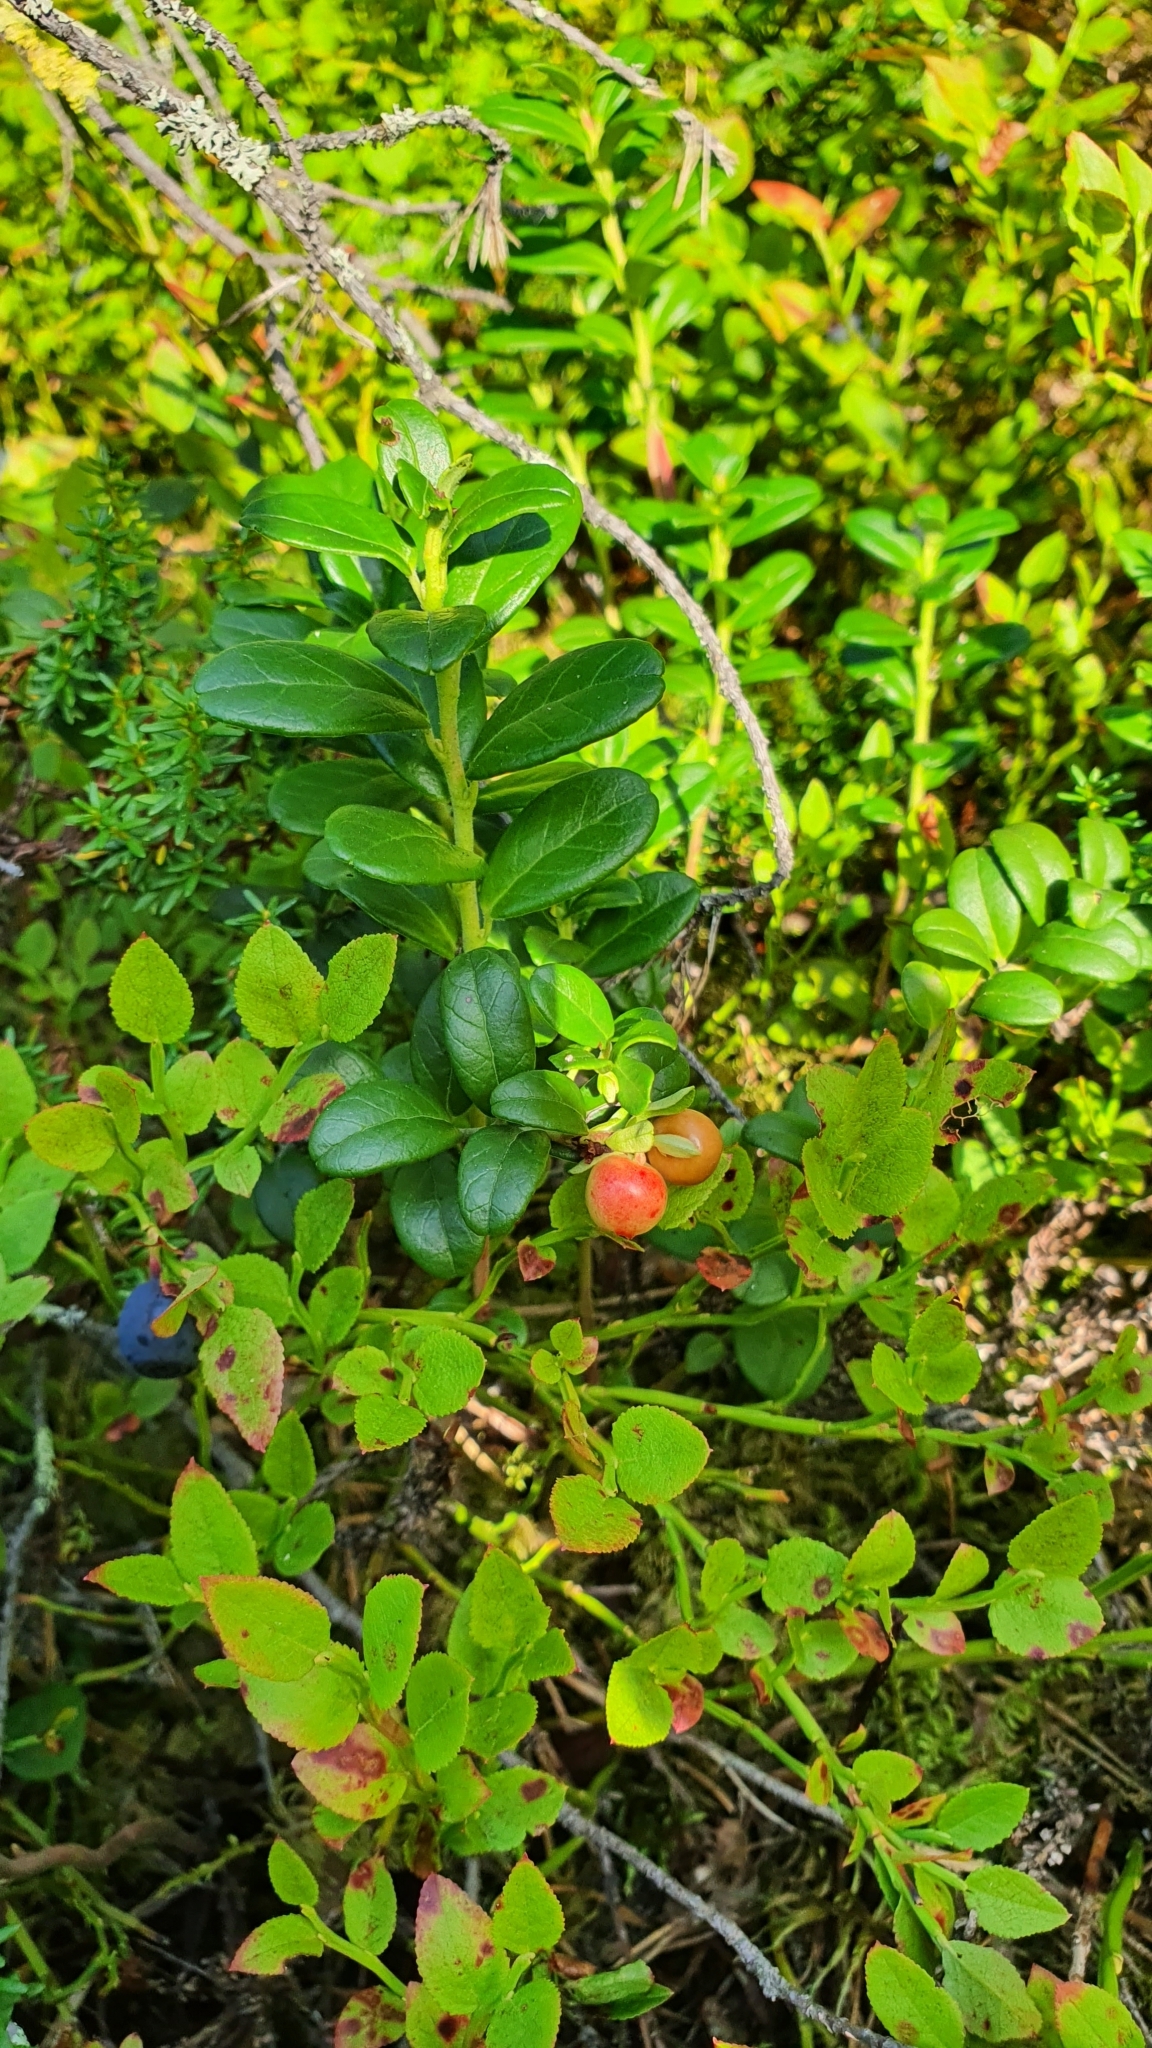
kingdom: Plantae
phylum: Tracheophyta
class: Magnoliopsida
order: Ericales
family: Ericaceae
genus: Vaccinium
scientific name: Vaccinium vitis-idaea
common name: Cowberry
